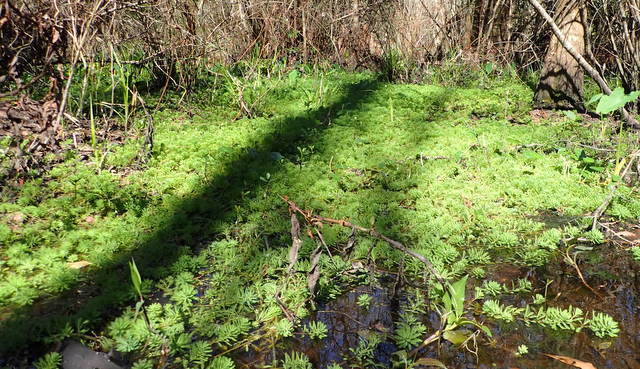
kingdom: Plantae
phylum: Tracheophyta
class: Magnoliopsida
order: Saxifragales
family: Haloragaceae
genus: Myriophyllum
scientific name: Myriophyllum aquaticum
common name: Parrot's feather
